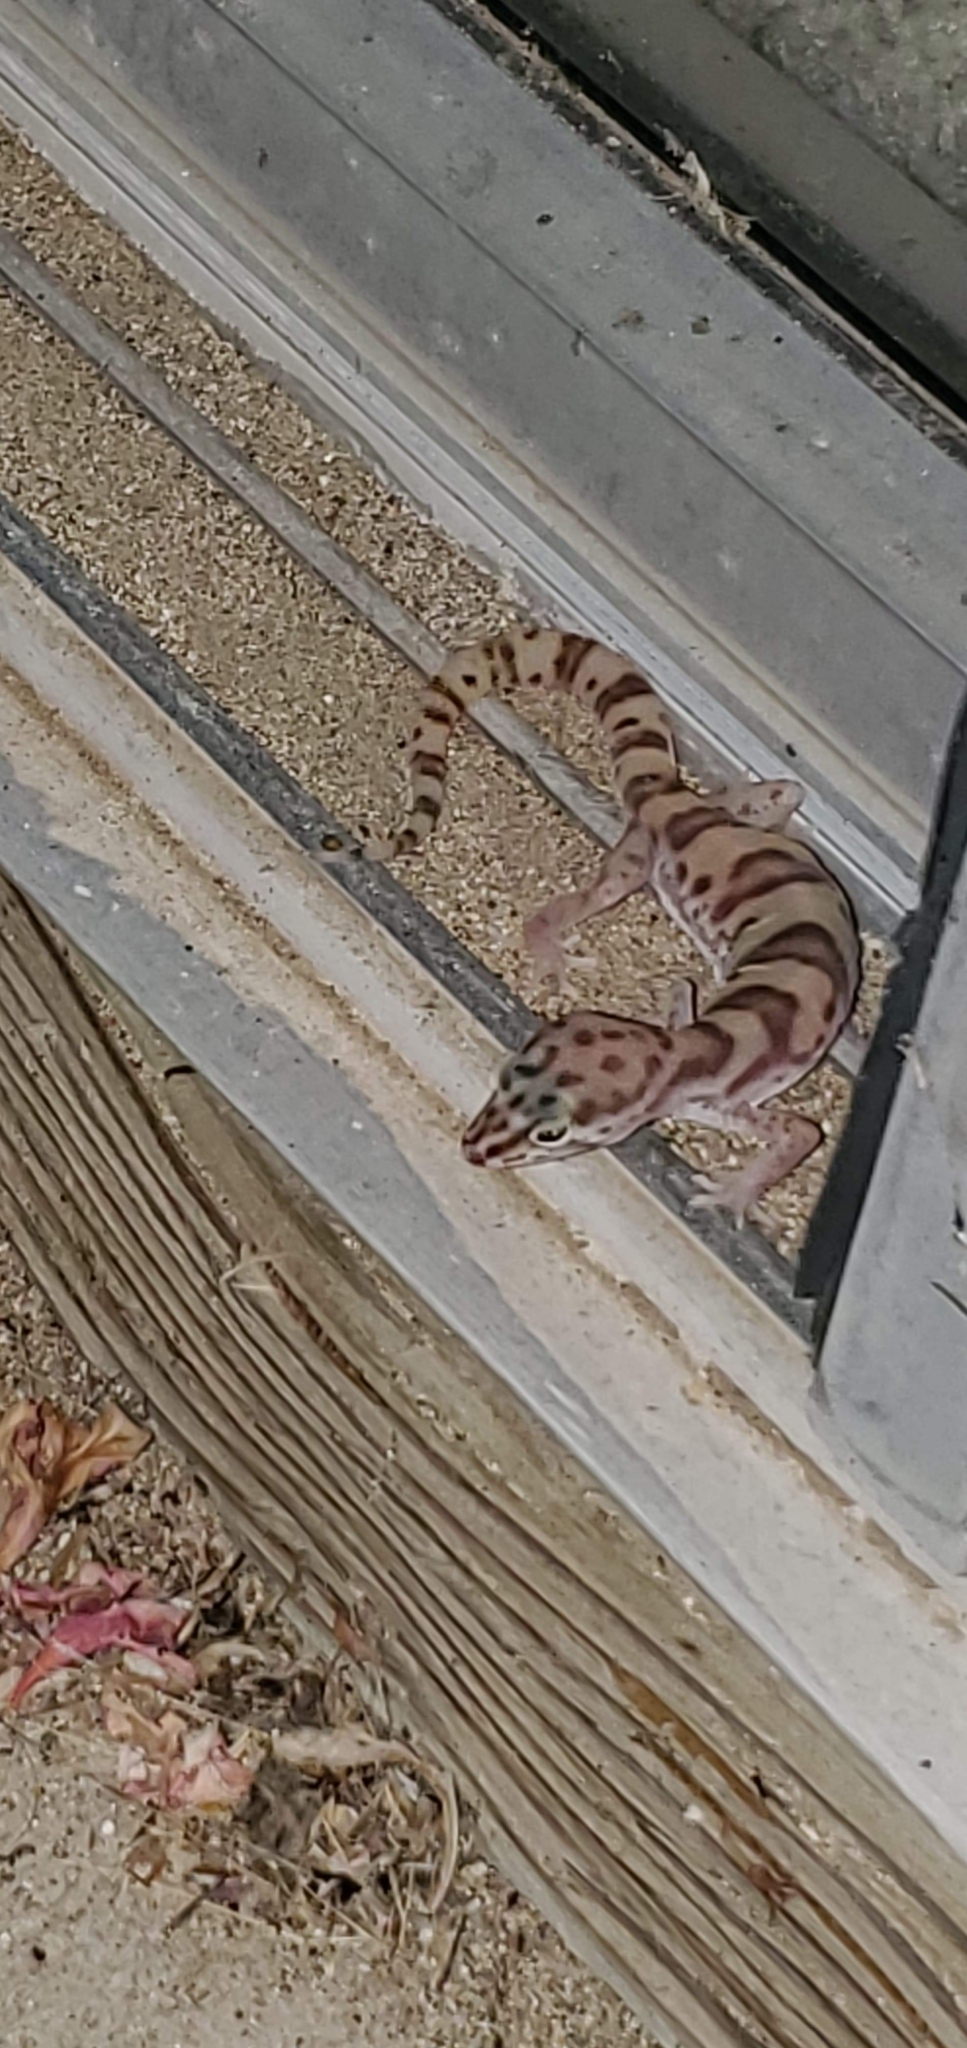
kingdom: Animalia
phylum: Chordata
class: Squamata
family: Eublepharidae
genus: Coleonyx
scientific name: Coleonyx variegatus
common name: Western banded gecko
